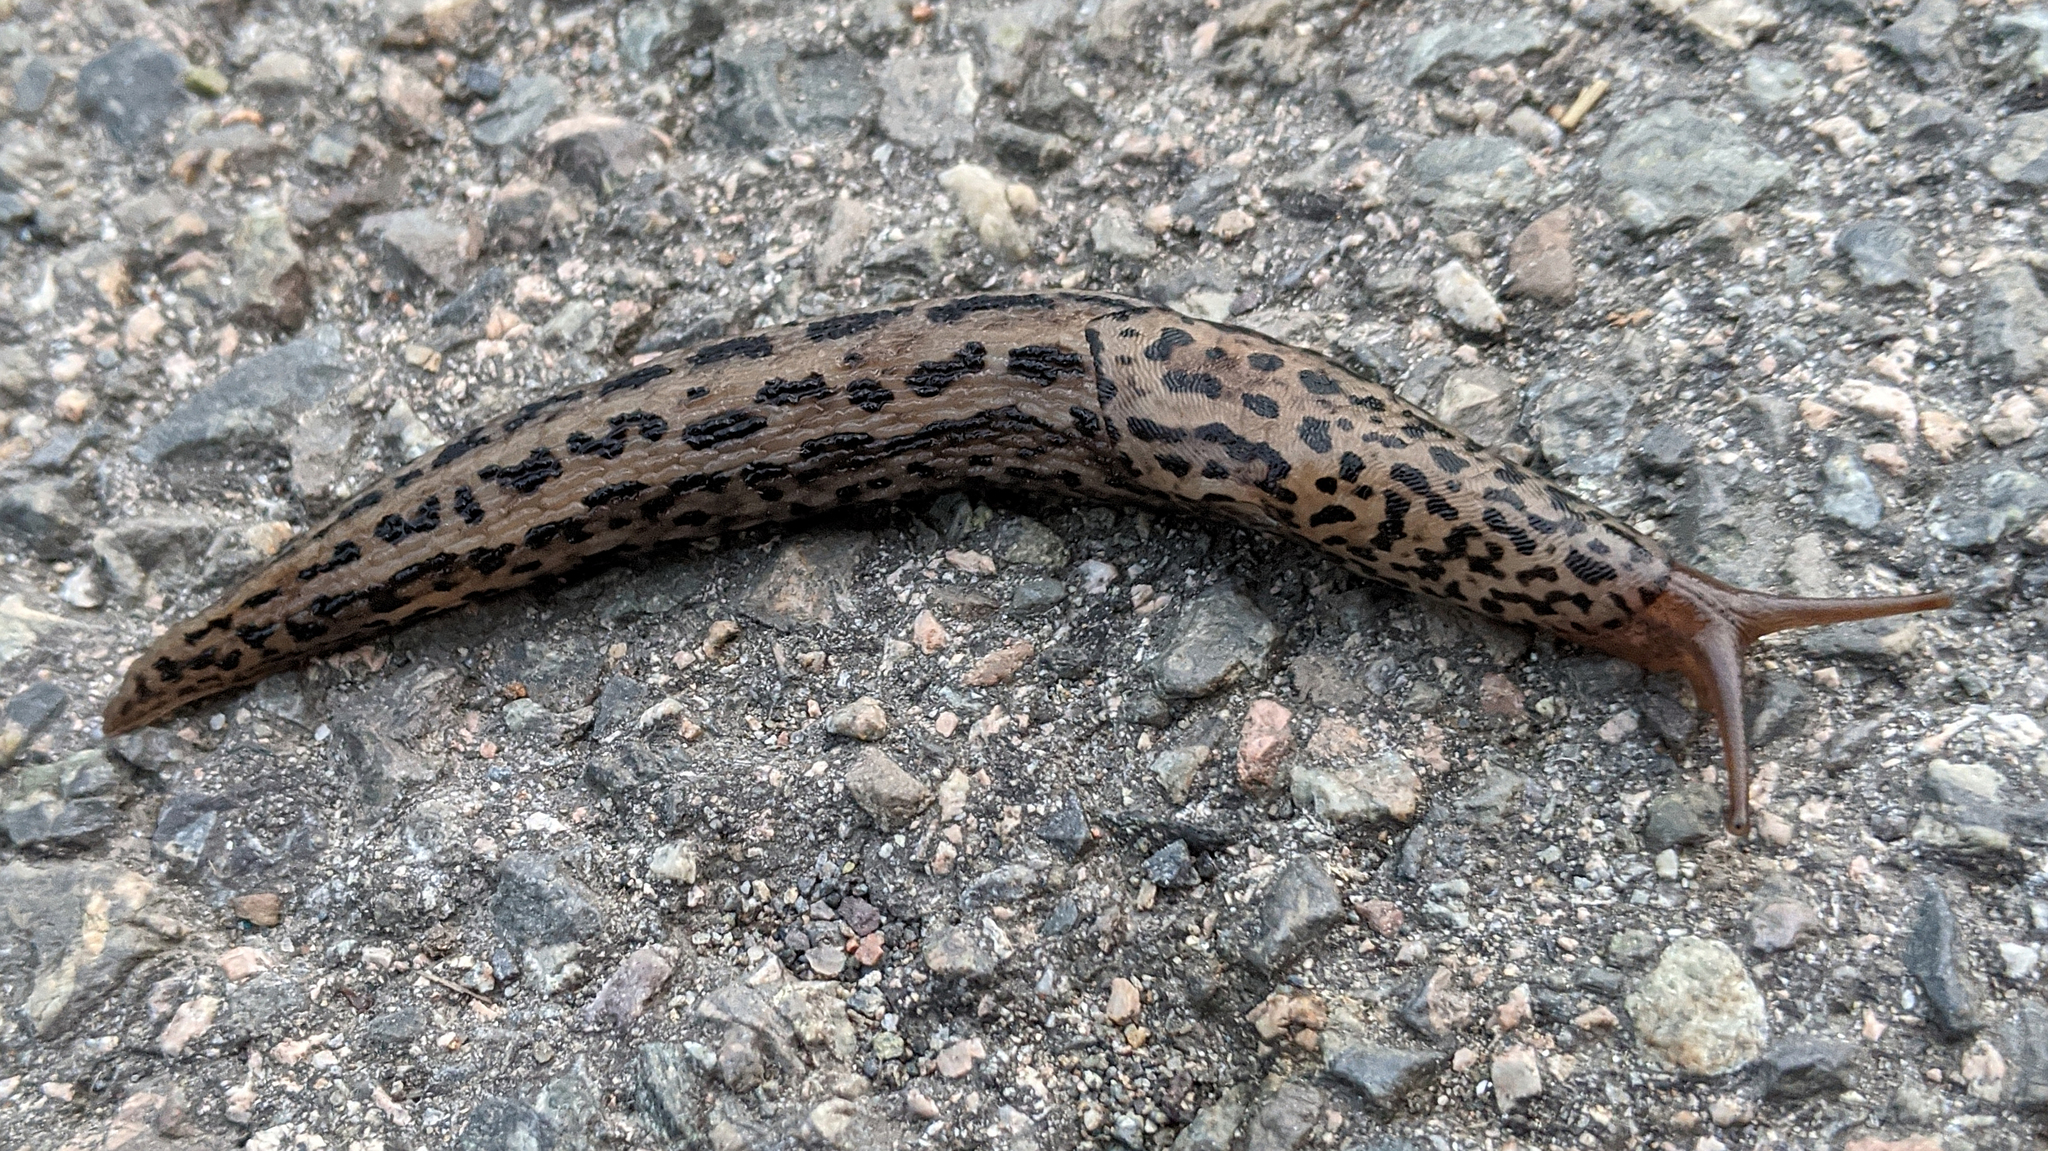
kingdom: Animalia
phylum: Mollusca
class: Gastropoda
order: Stylommatophora
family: Limacidae
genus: Limax
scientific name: Limax maximus
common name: Great grey slug
